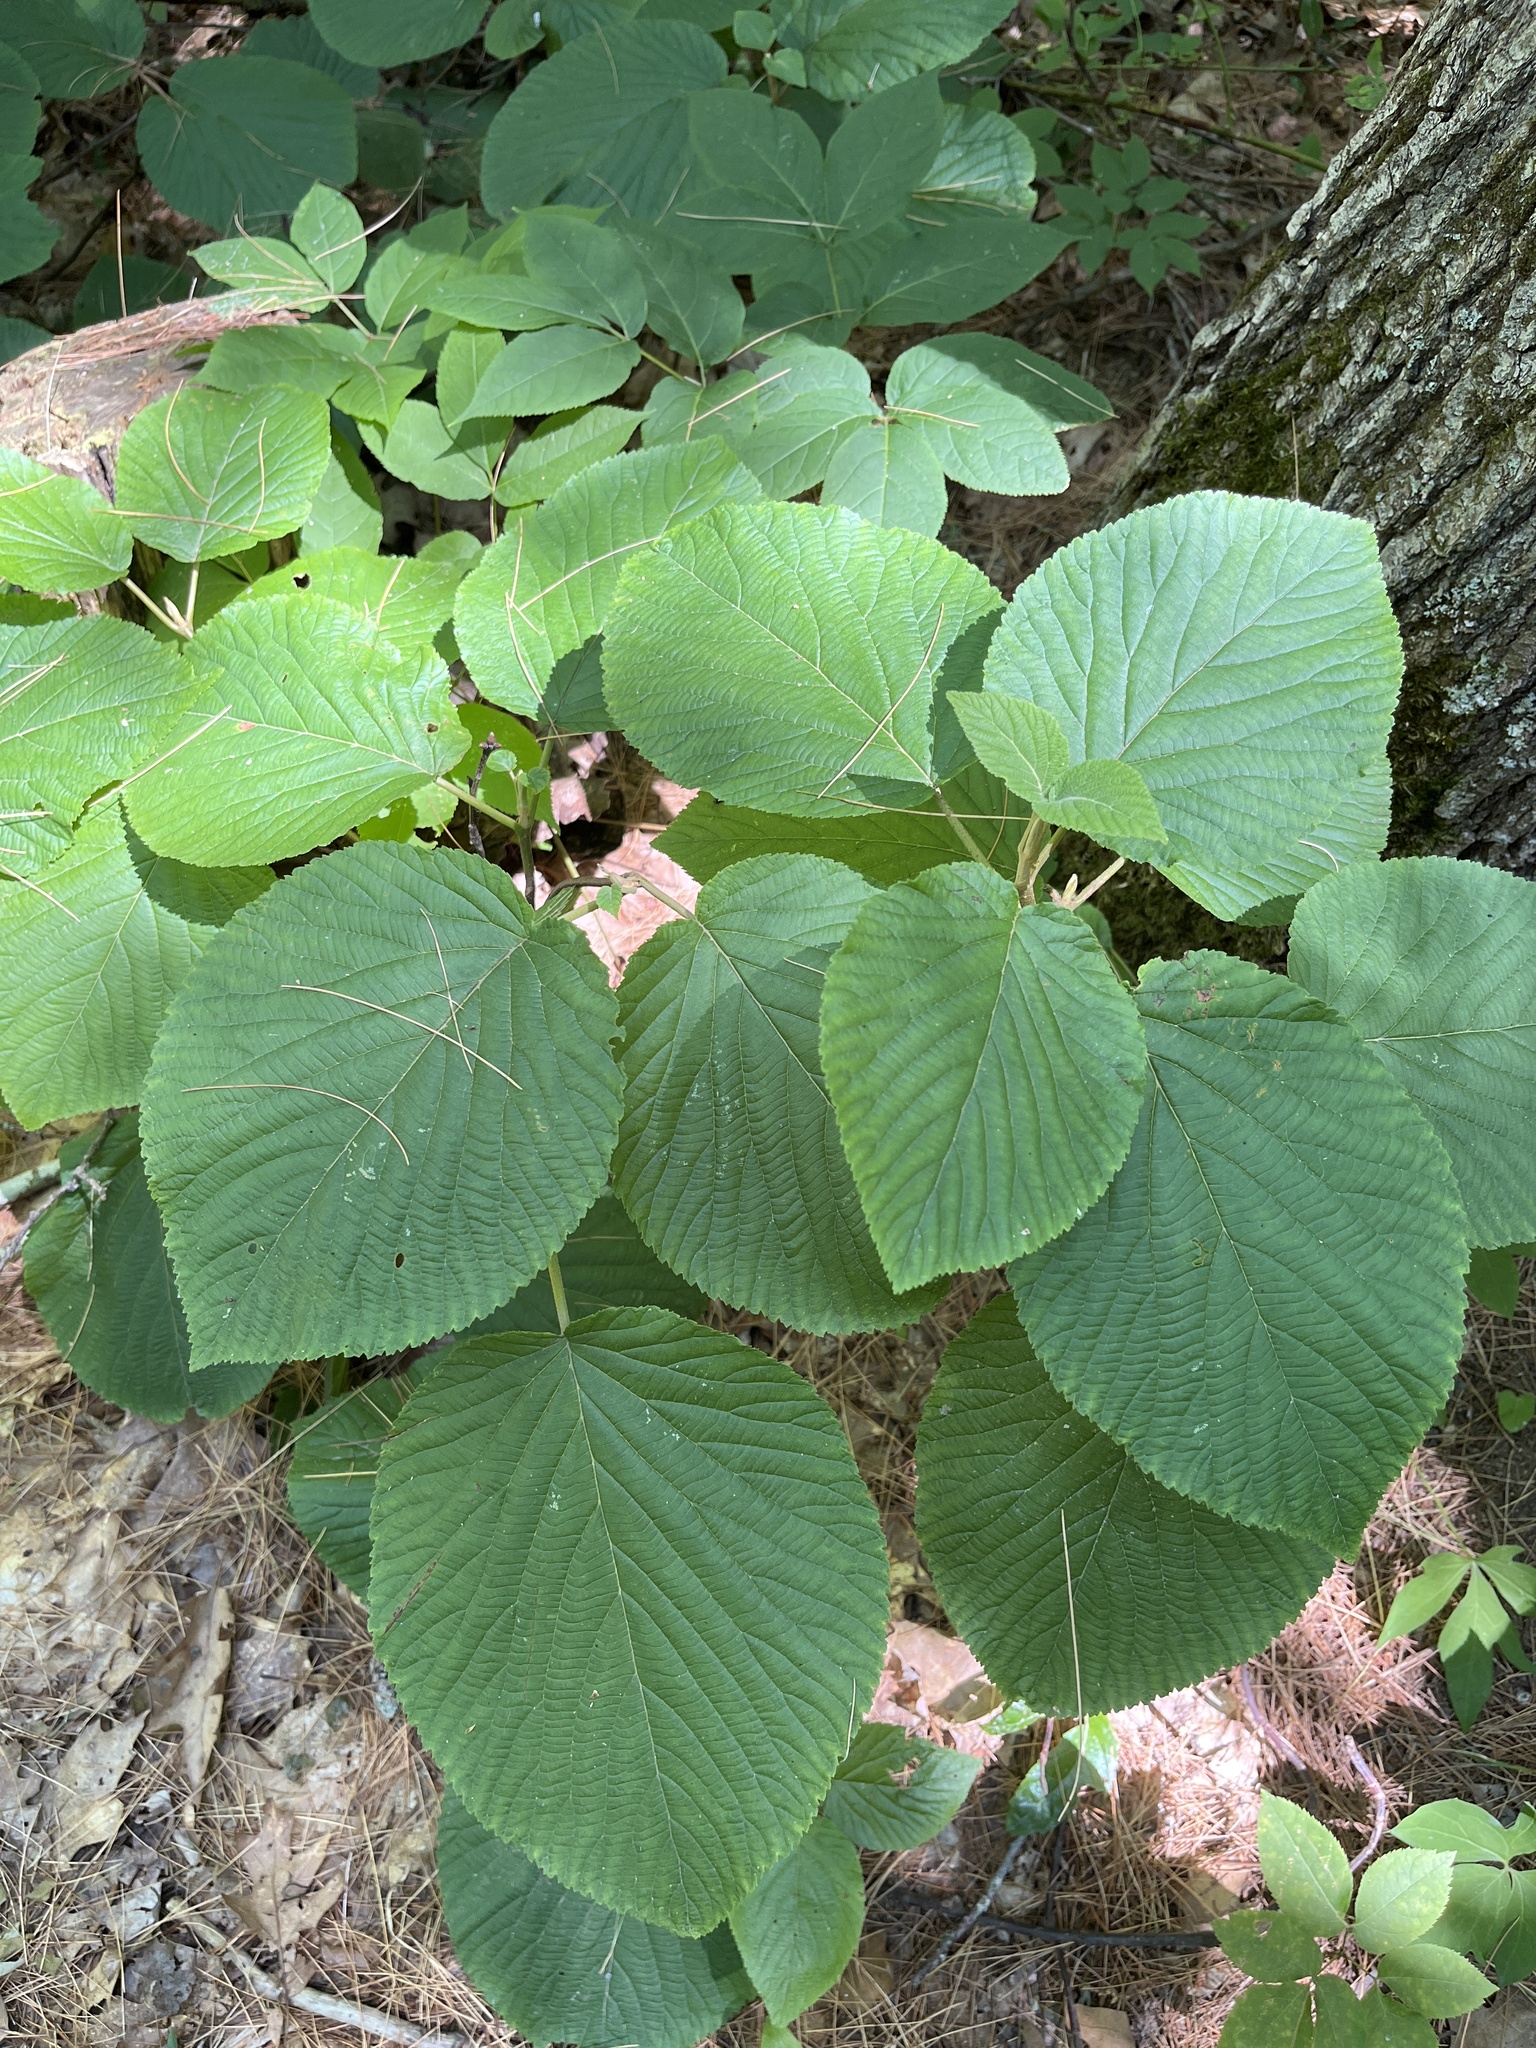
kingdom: Plantae
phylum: Tracheophyta
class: Magnoliopsida
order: Dipsacales
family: Viburnaceae
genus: Viburnum
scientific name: Viburnum lantanoides
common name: Hobblebush
